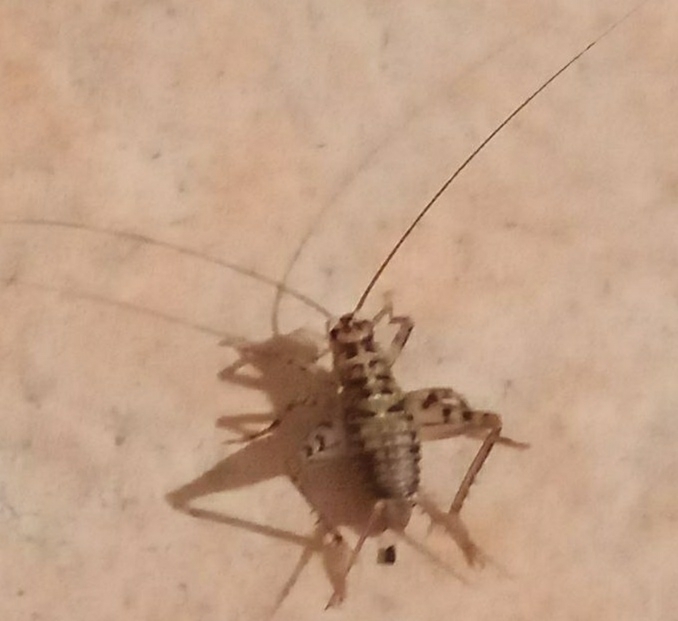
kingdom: Animalia
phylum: Arthropoda
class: Insecta
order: Orthoptera
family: Gryllidae
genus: Gryllomorpha
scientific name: Gryllomorpha dalmatina
